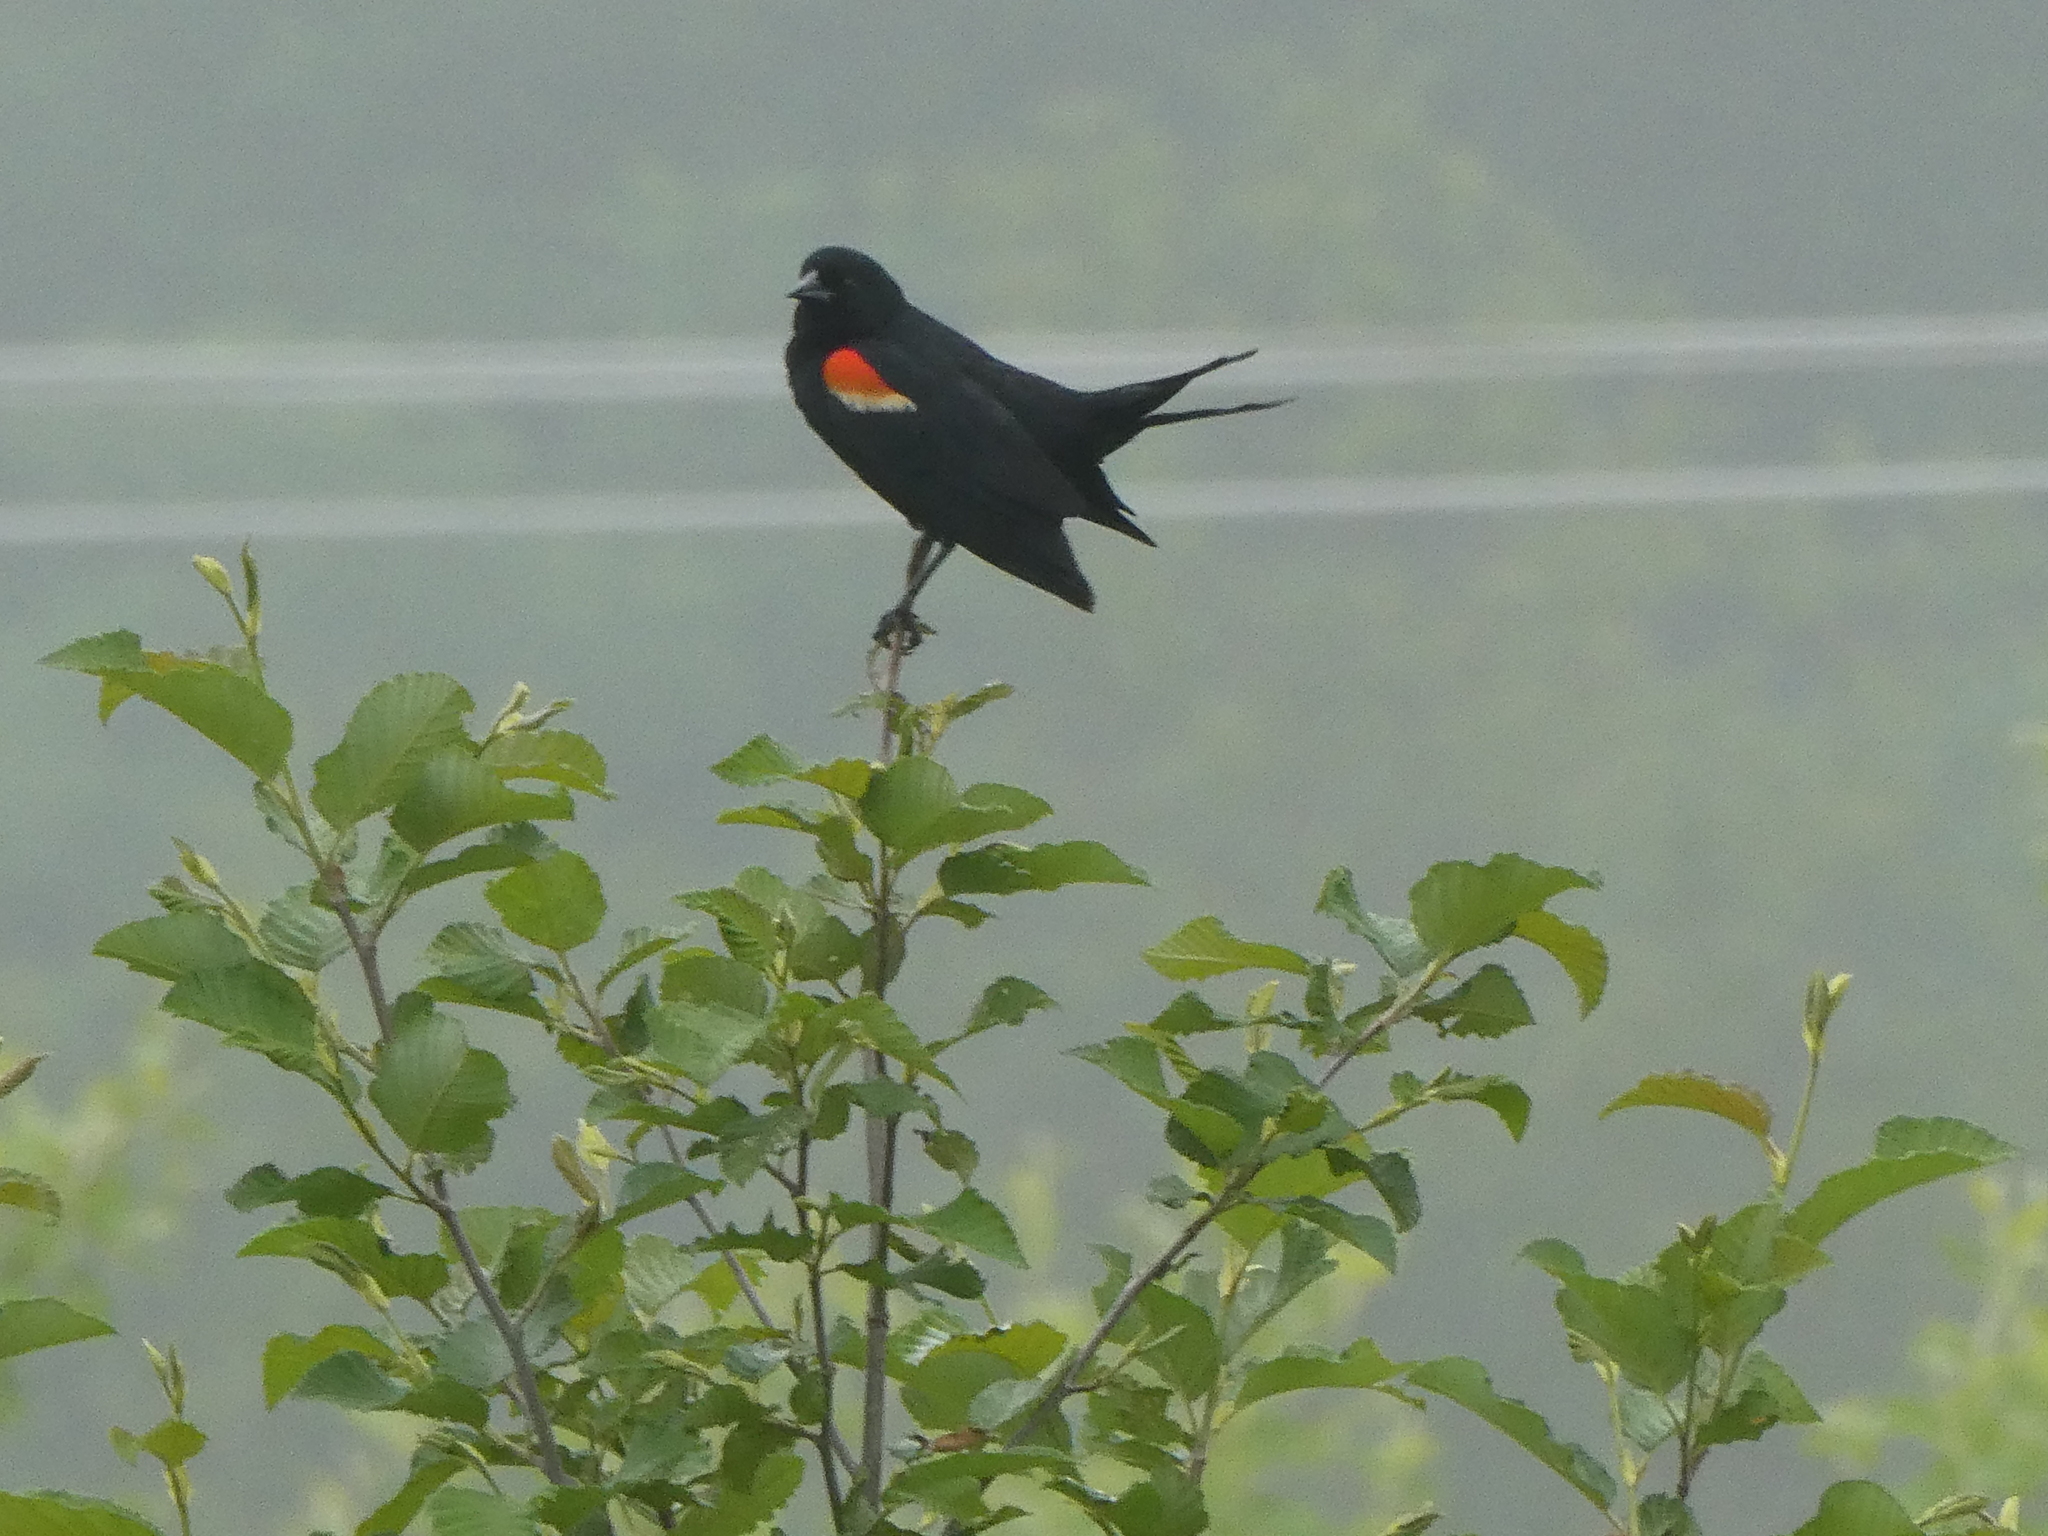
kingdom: Animalia
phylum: Chordata
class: Aves
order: Passeriformes
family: Icteridae
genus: Agelaius
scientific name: Agelaius phoeniceus
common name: Red-winged blackbird
